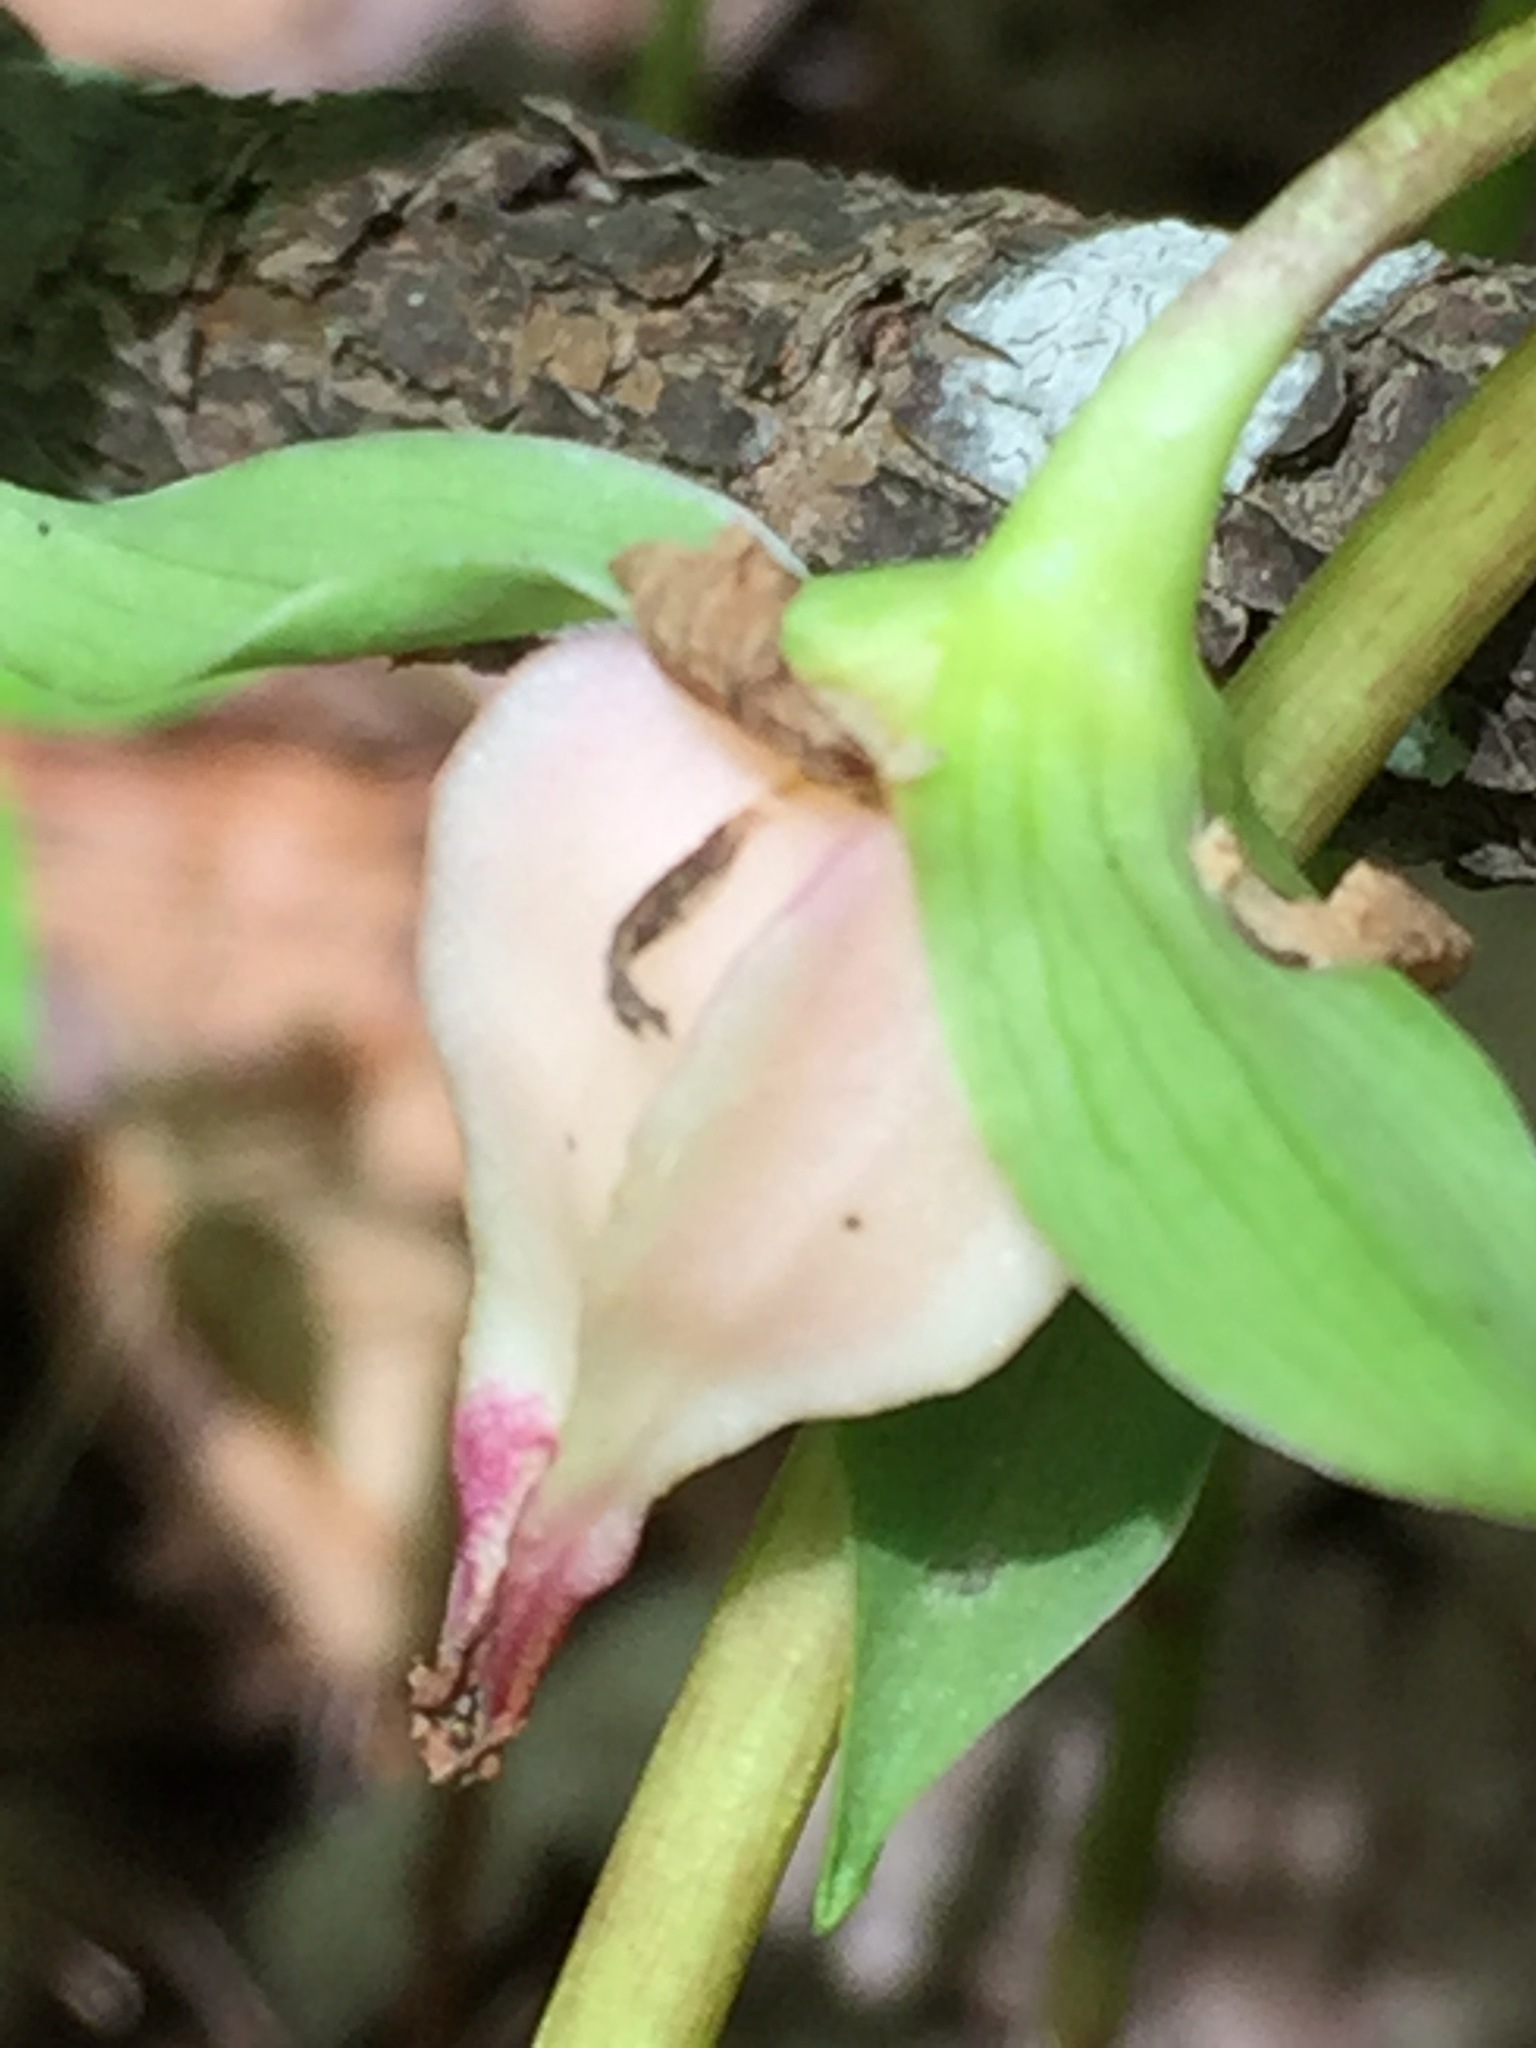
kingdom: Plantae
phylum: Tracheophyta
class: Liliopsida
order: Liliales
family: Melanthiaceae
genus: Trillium
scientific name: Trillium cernuum
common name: Nodding trillium
